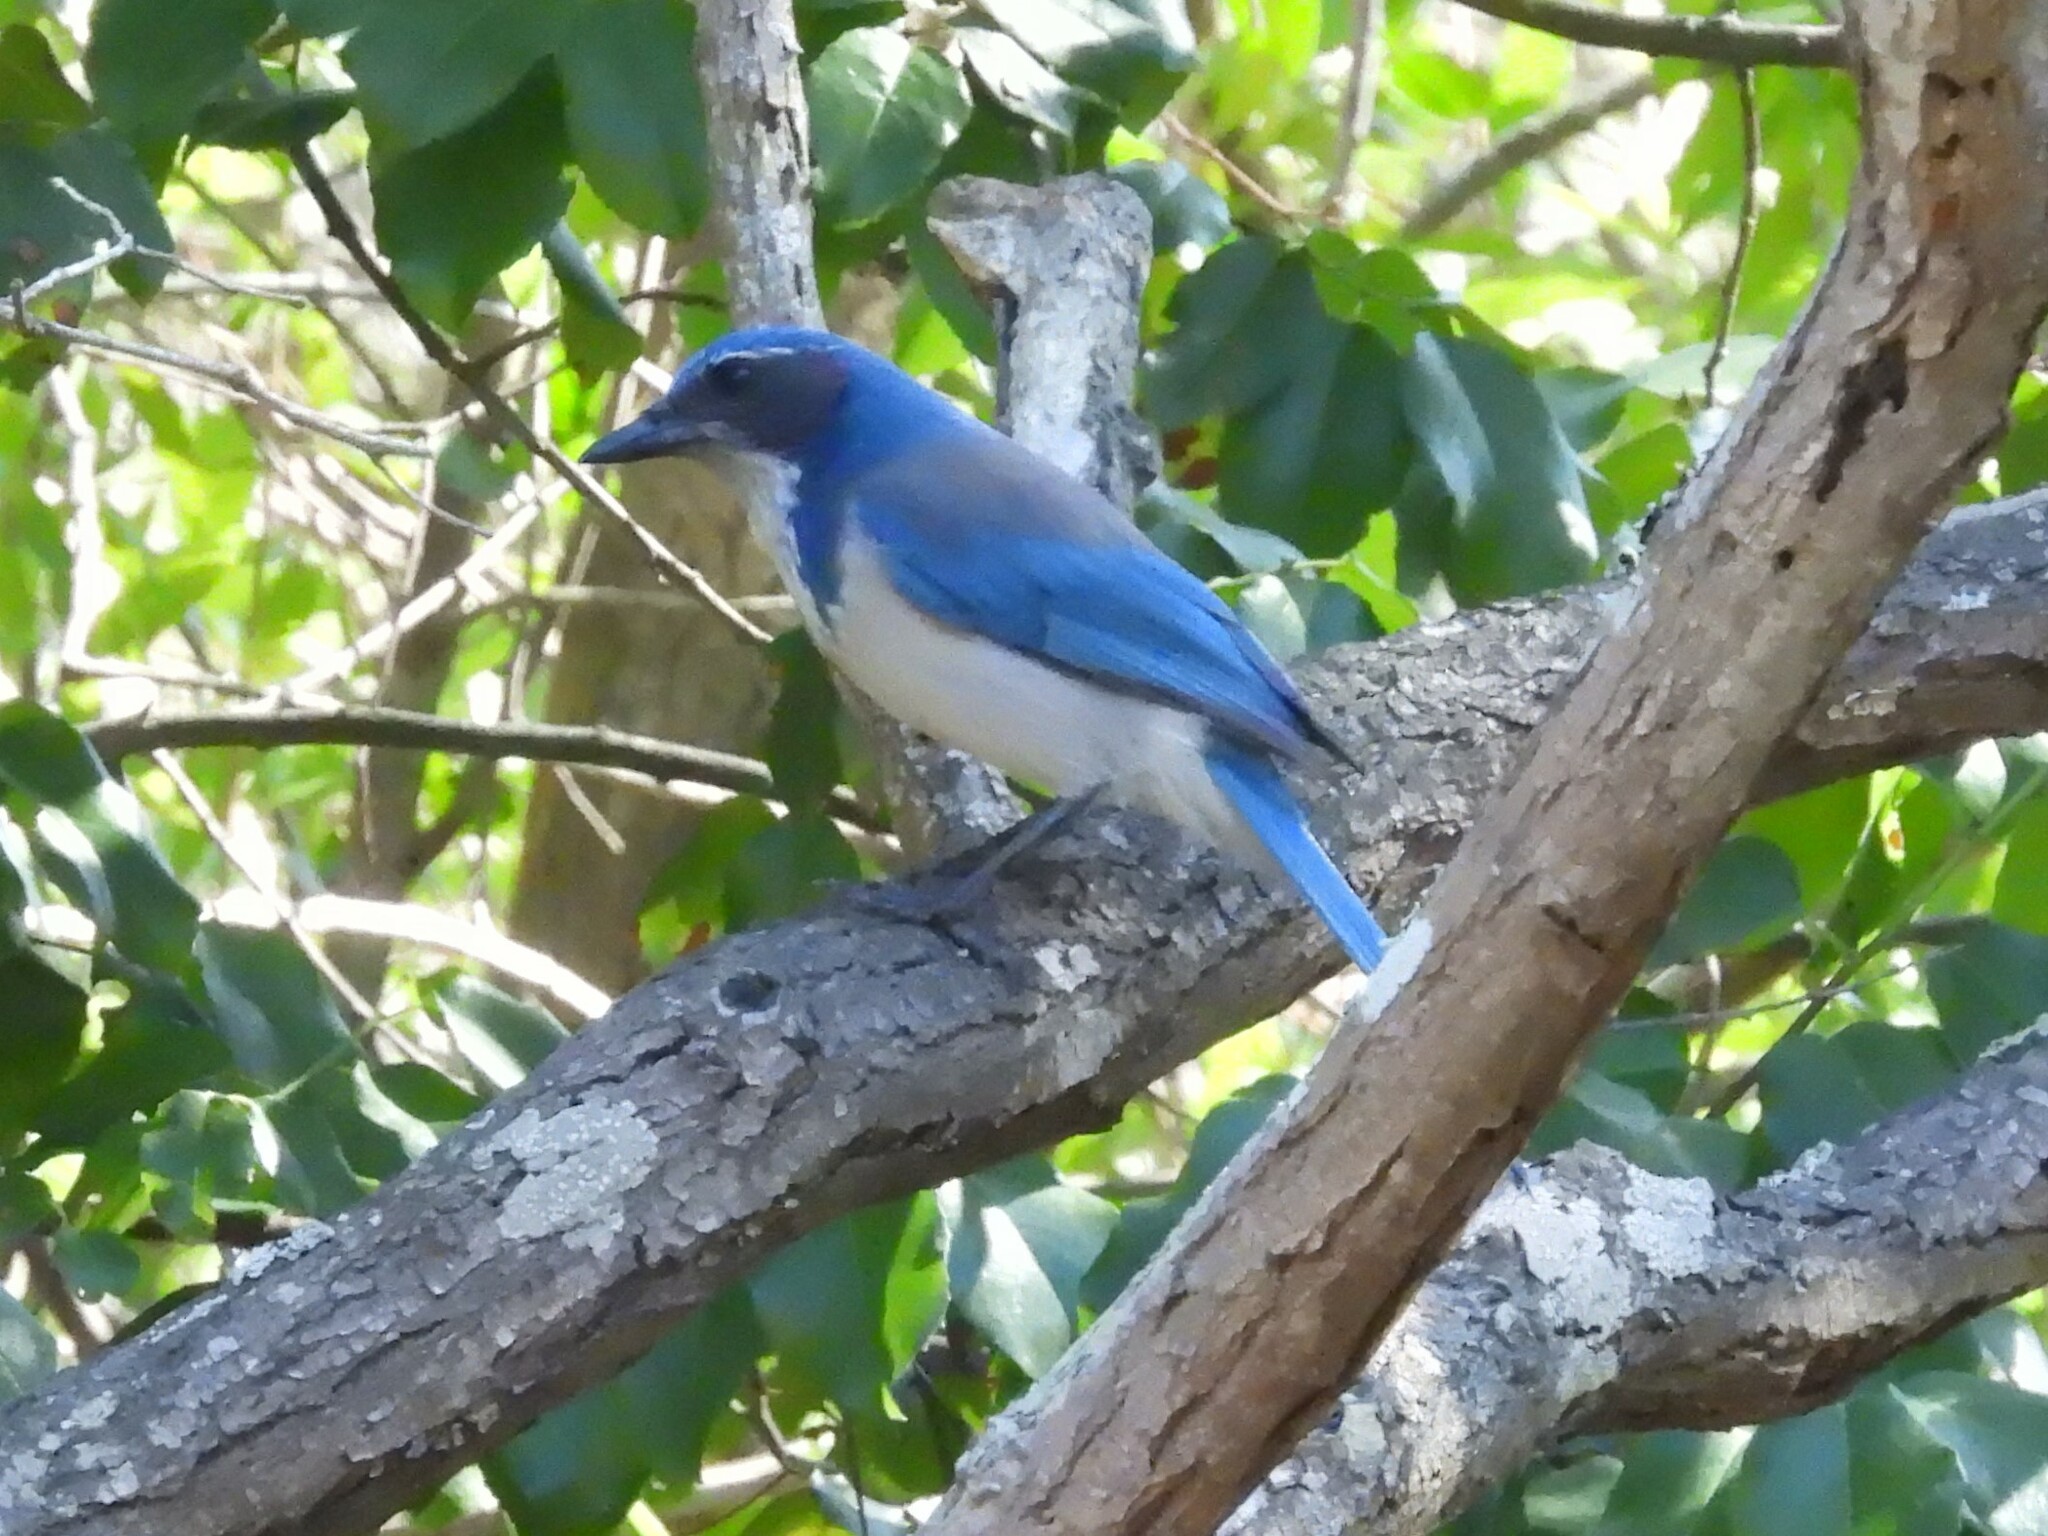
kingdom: Animalia
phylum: Chordata
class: Aves
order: Passeriformes
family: Corvidae
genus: Aphelocoma
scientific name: Aphelocoma californica
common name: California scrub-jay
